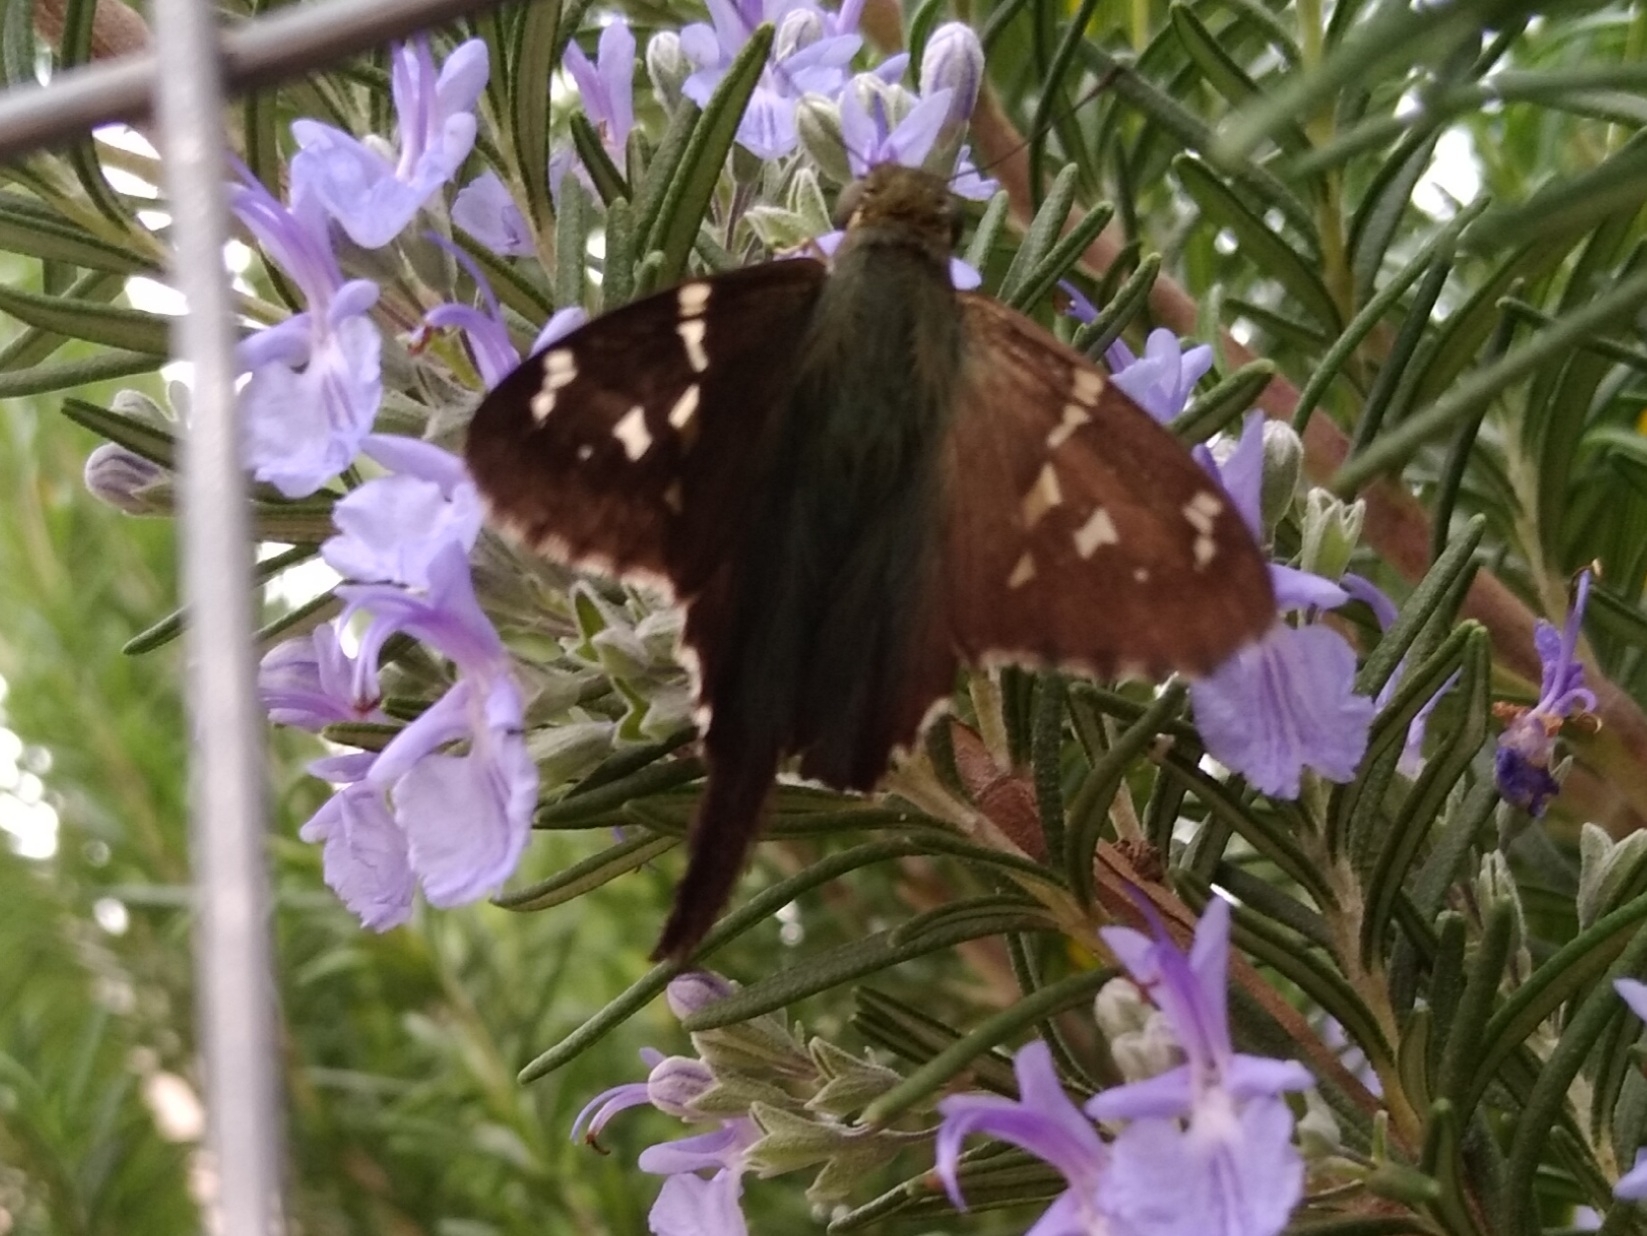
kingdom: Animalia
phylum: Arthropoda
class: Insecta
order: Lepidoptera
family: Hesperiidae
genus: Urbanus
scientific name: Urbanus proteus
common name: Long-tailed skipper
